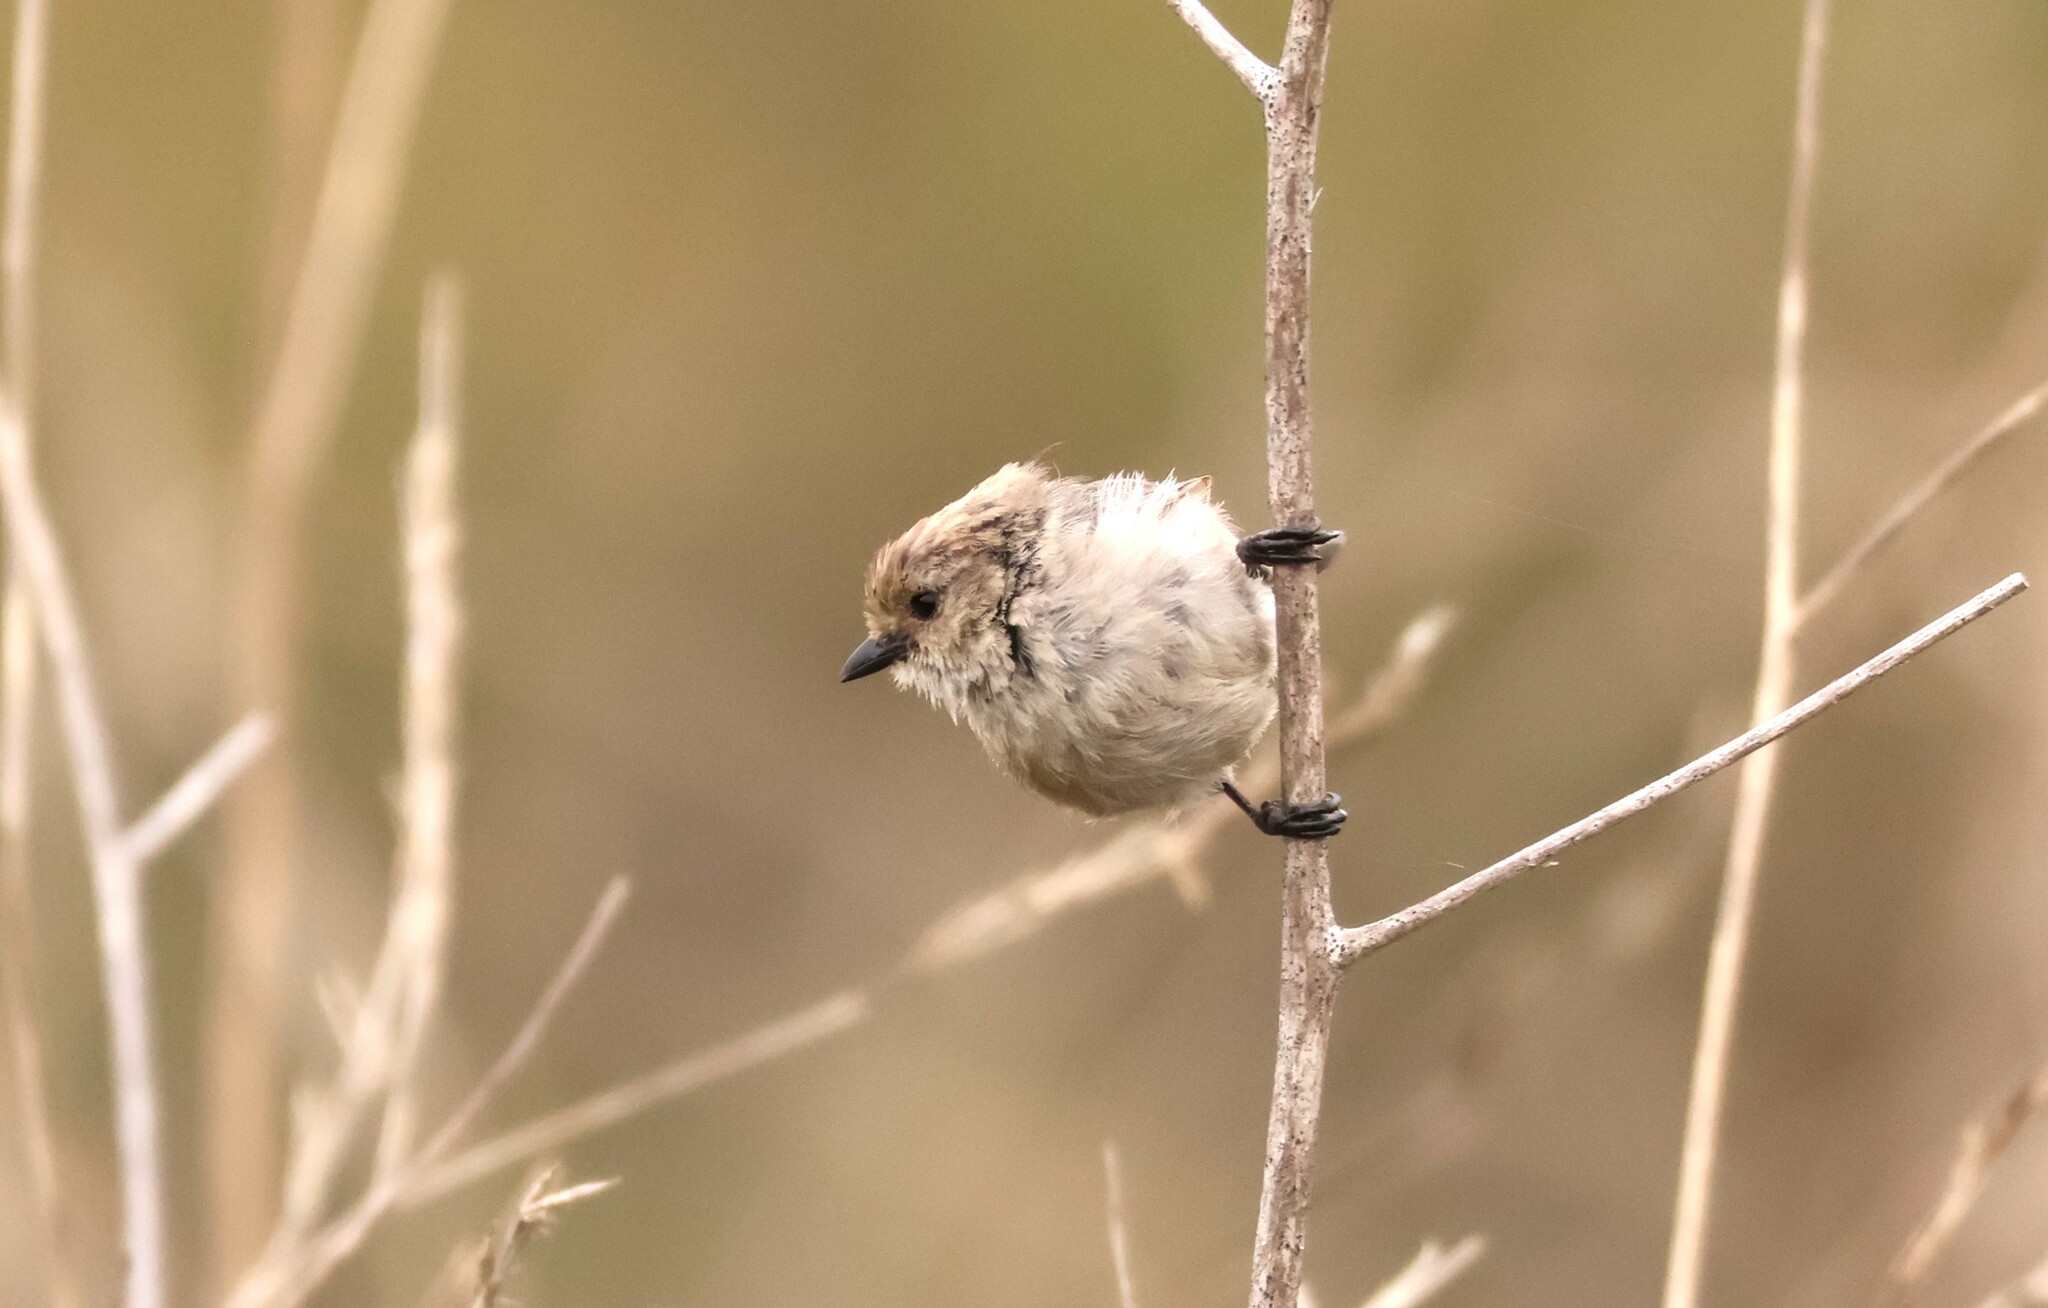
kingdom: Animalia
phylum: Chordata
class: Aves
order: Passeriformes
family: Aegithalidae
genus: Psaltriparus
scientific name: Psaltriparus minimus
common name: American bushtit
